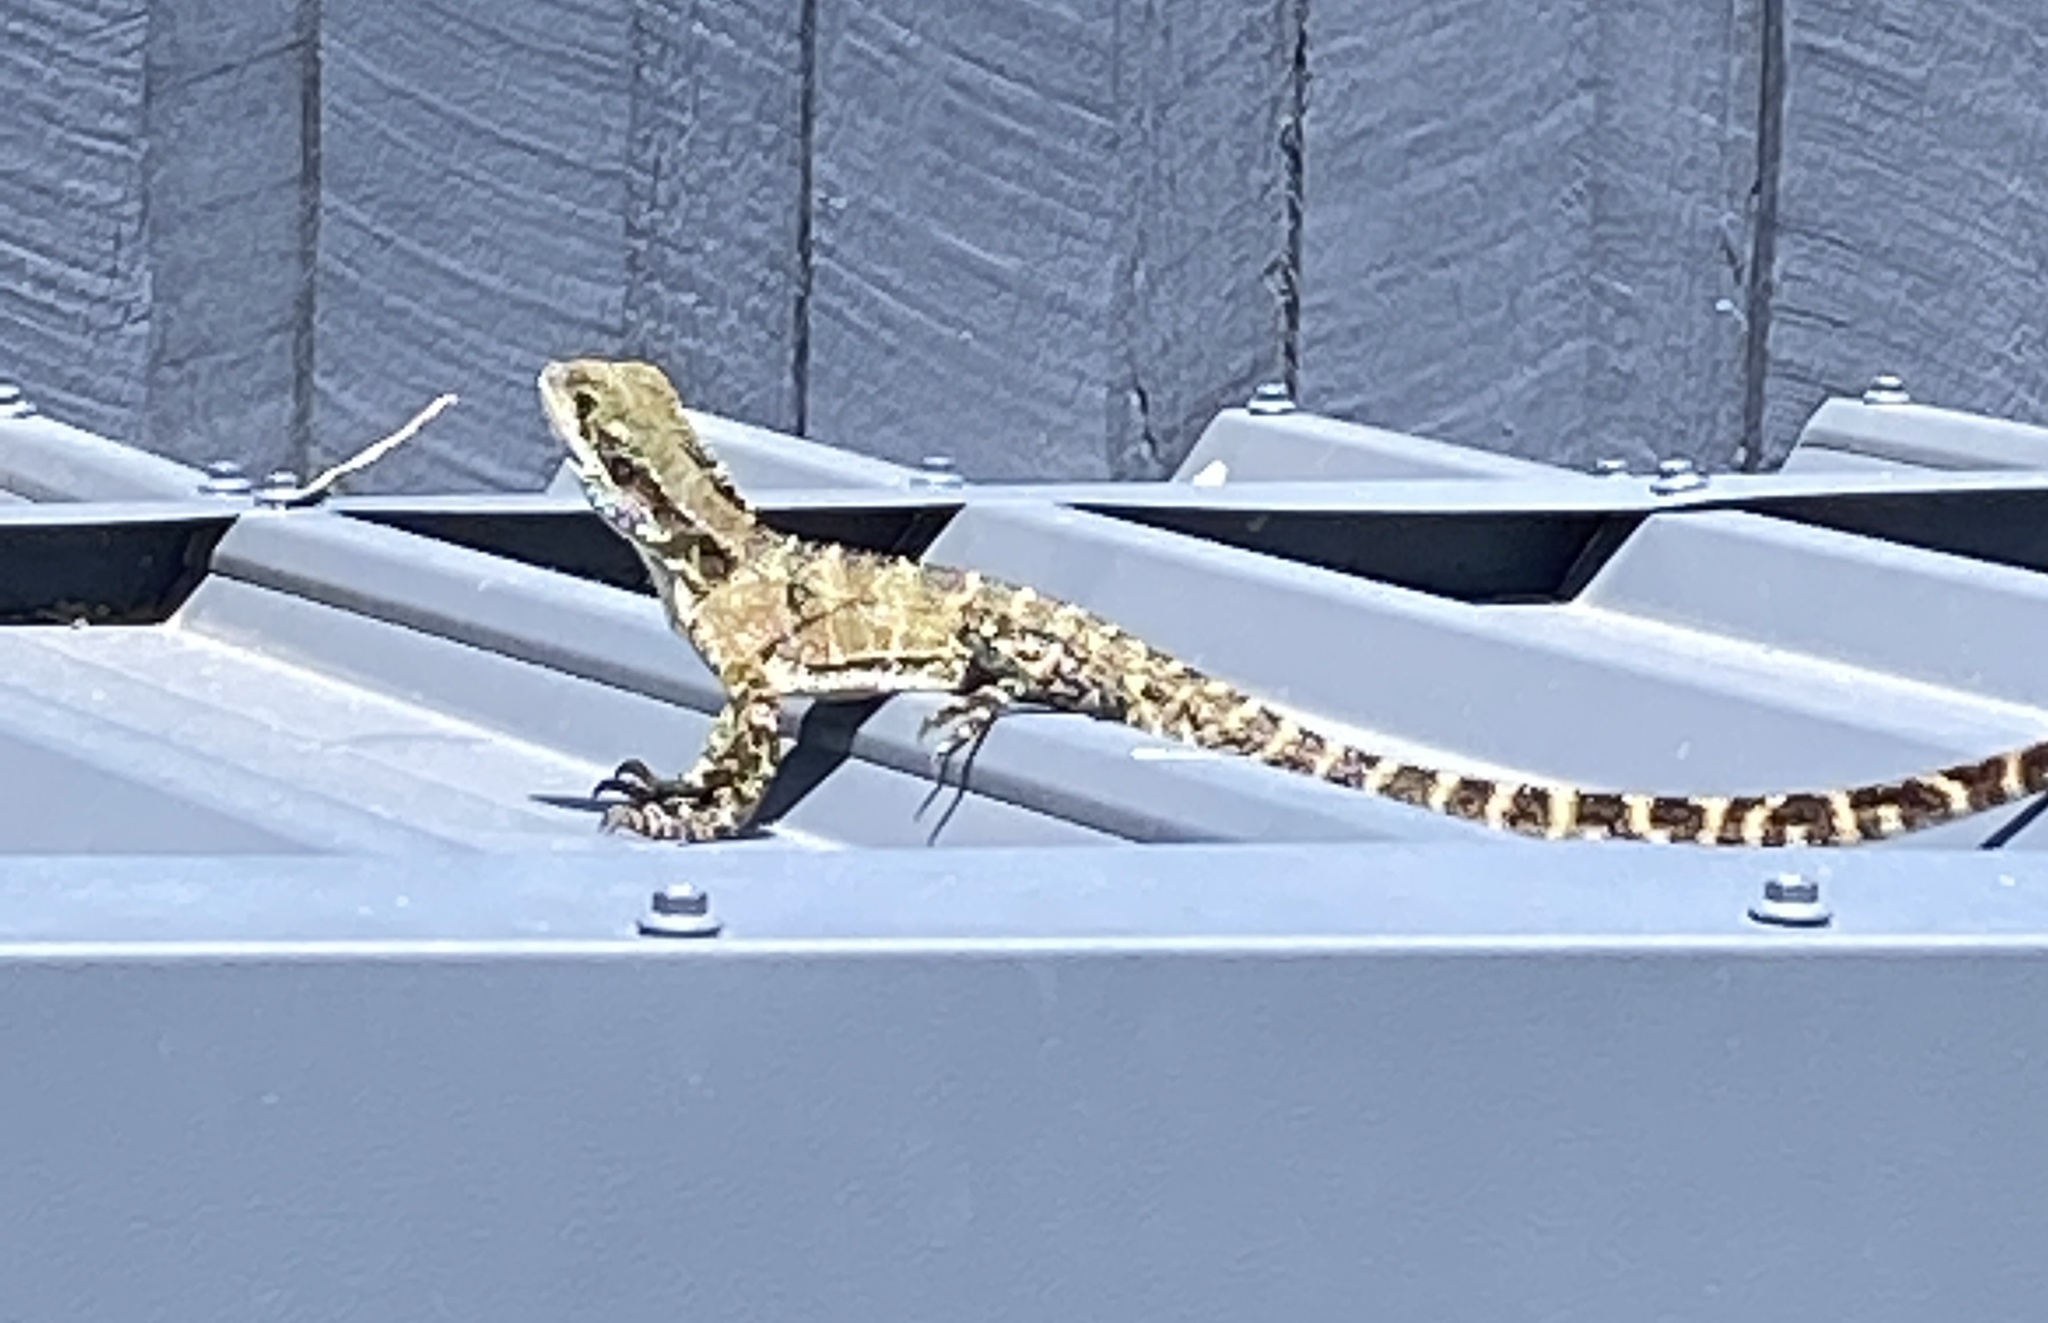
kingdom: Animalia
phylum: Chordata
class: Squamata
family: Agamidae
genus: Intellagama
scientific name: Intellagama lesueurii
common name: Eastern water dragon
